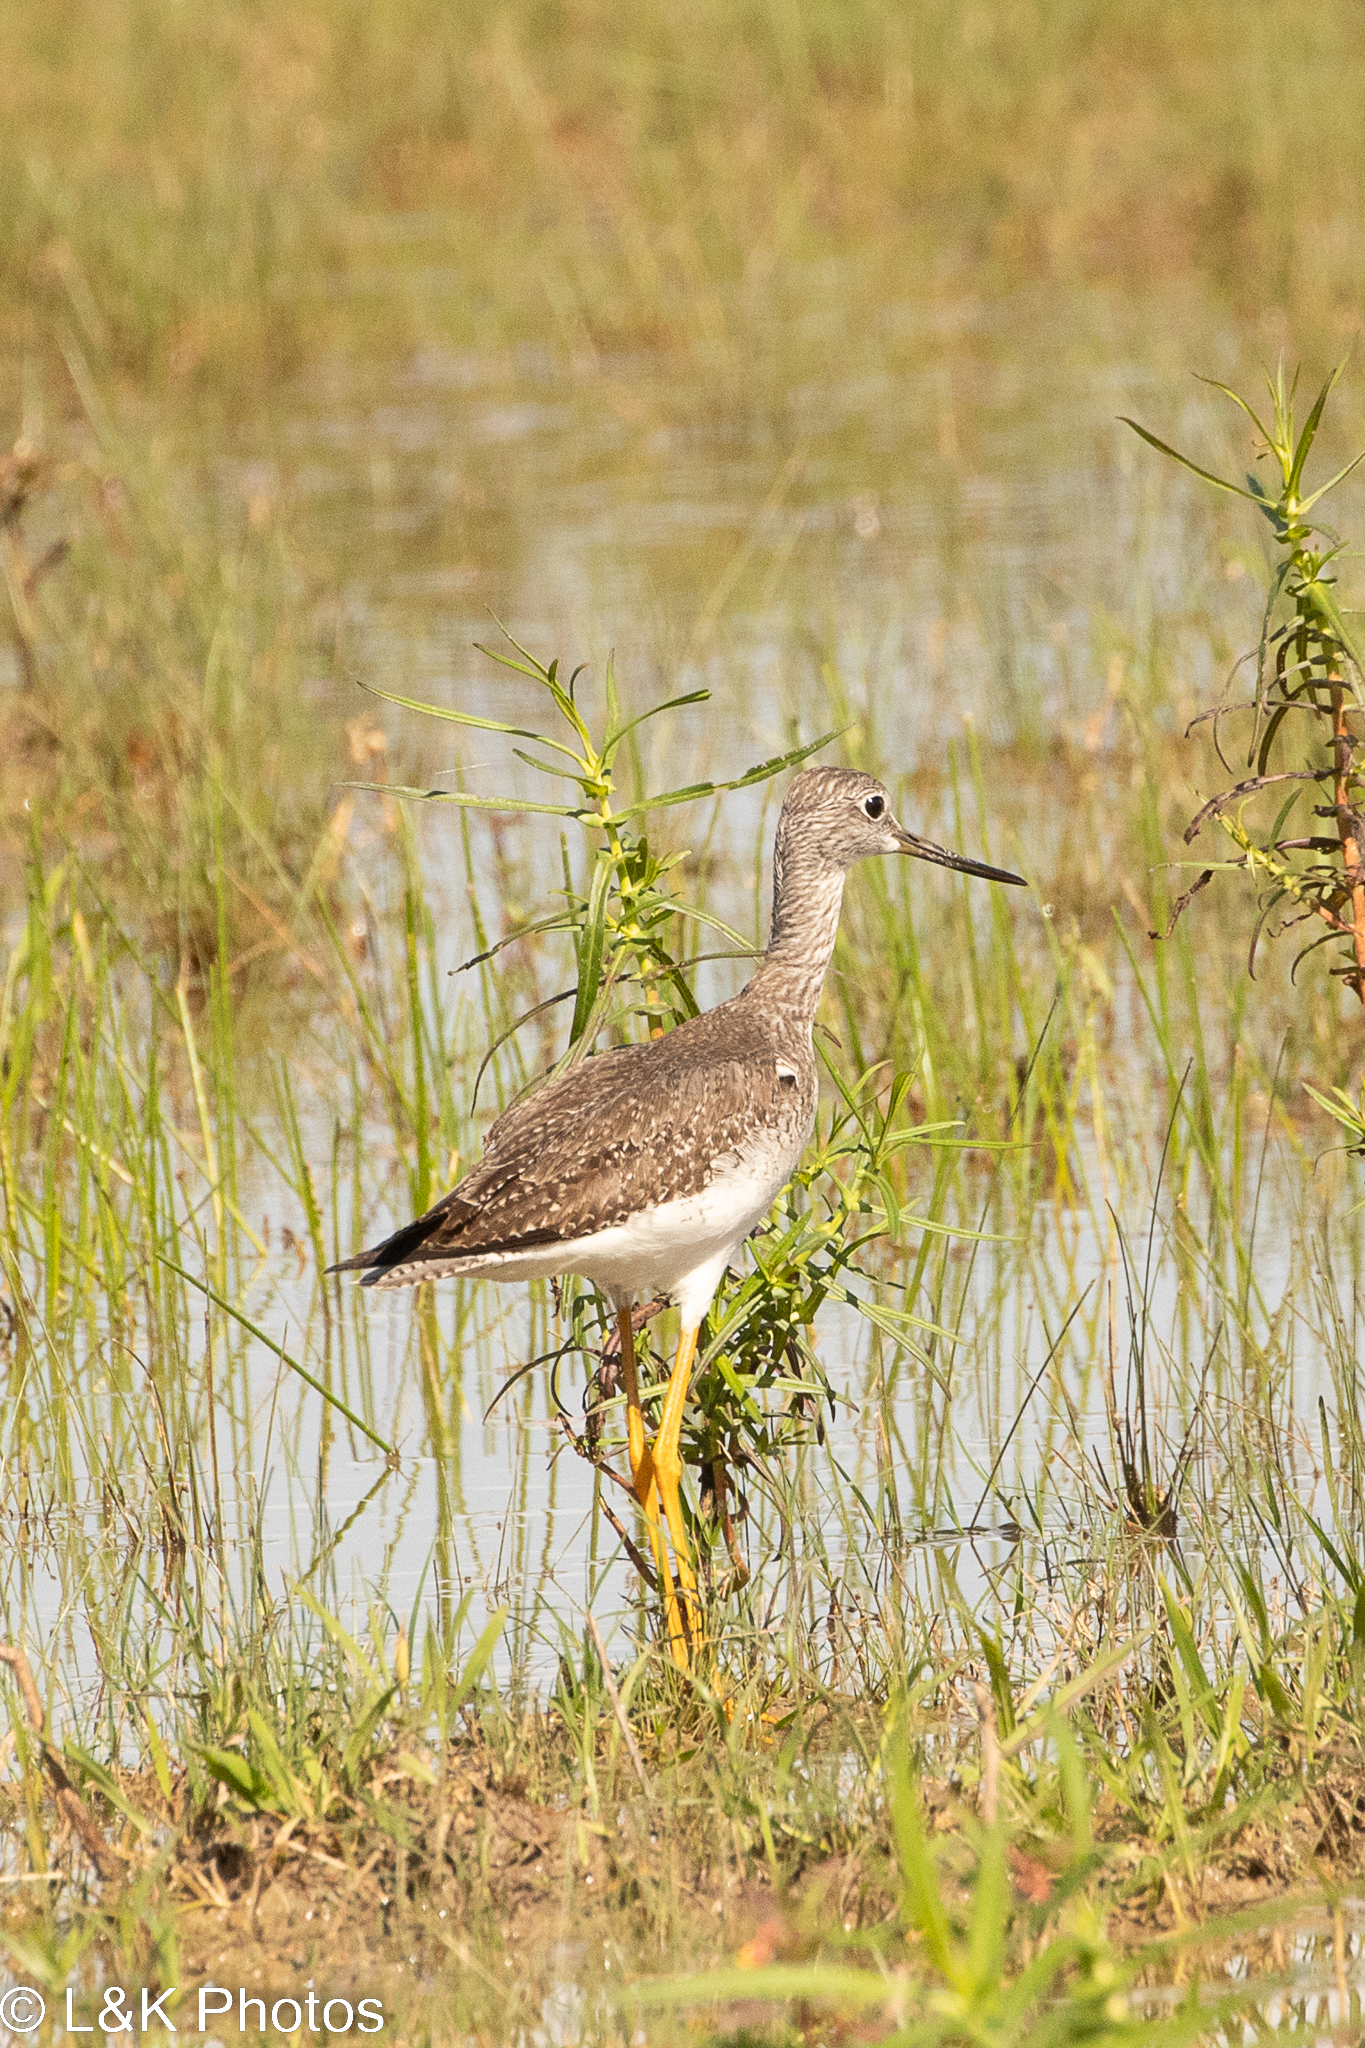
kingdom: Animalia
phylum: Chordata
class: Aves
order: Charadriiformes
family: Scolopacidae
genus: Tringa
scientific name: Tringa melanoleuca
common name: Greater yellowlegs
